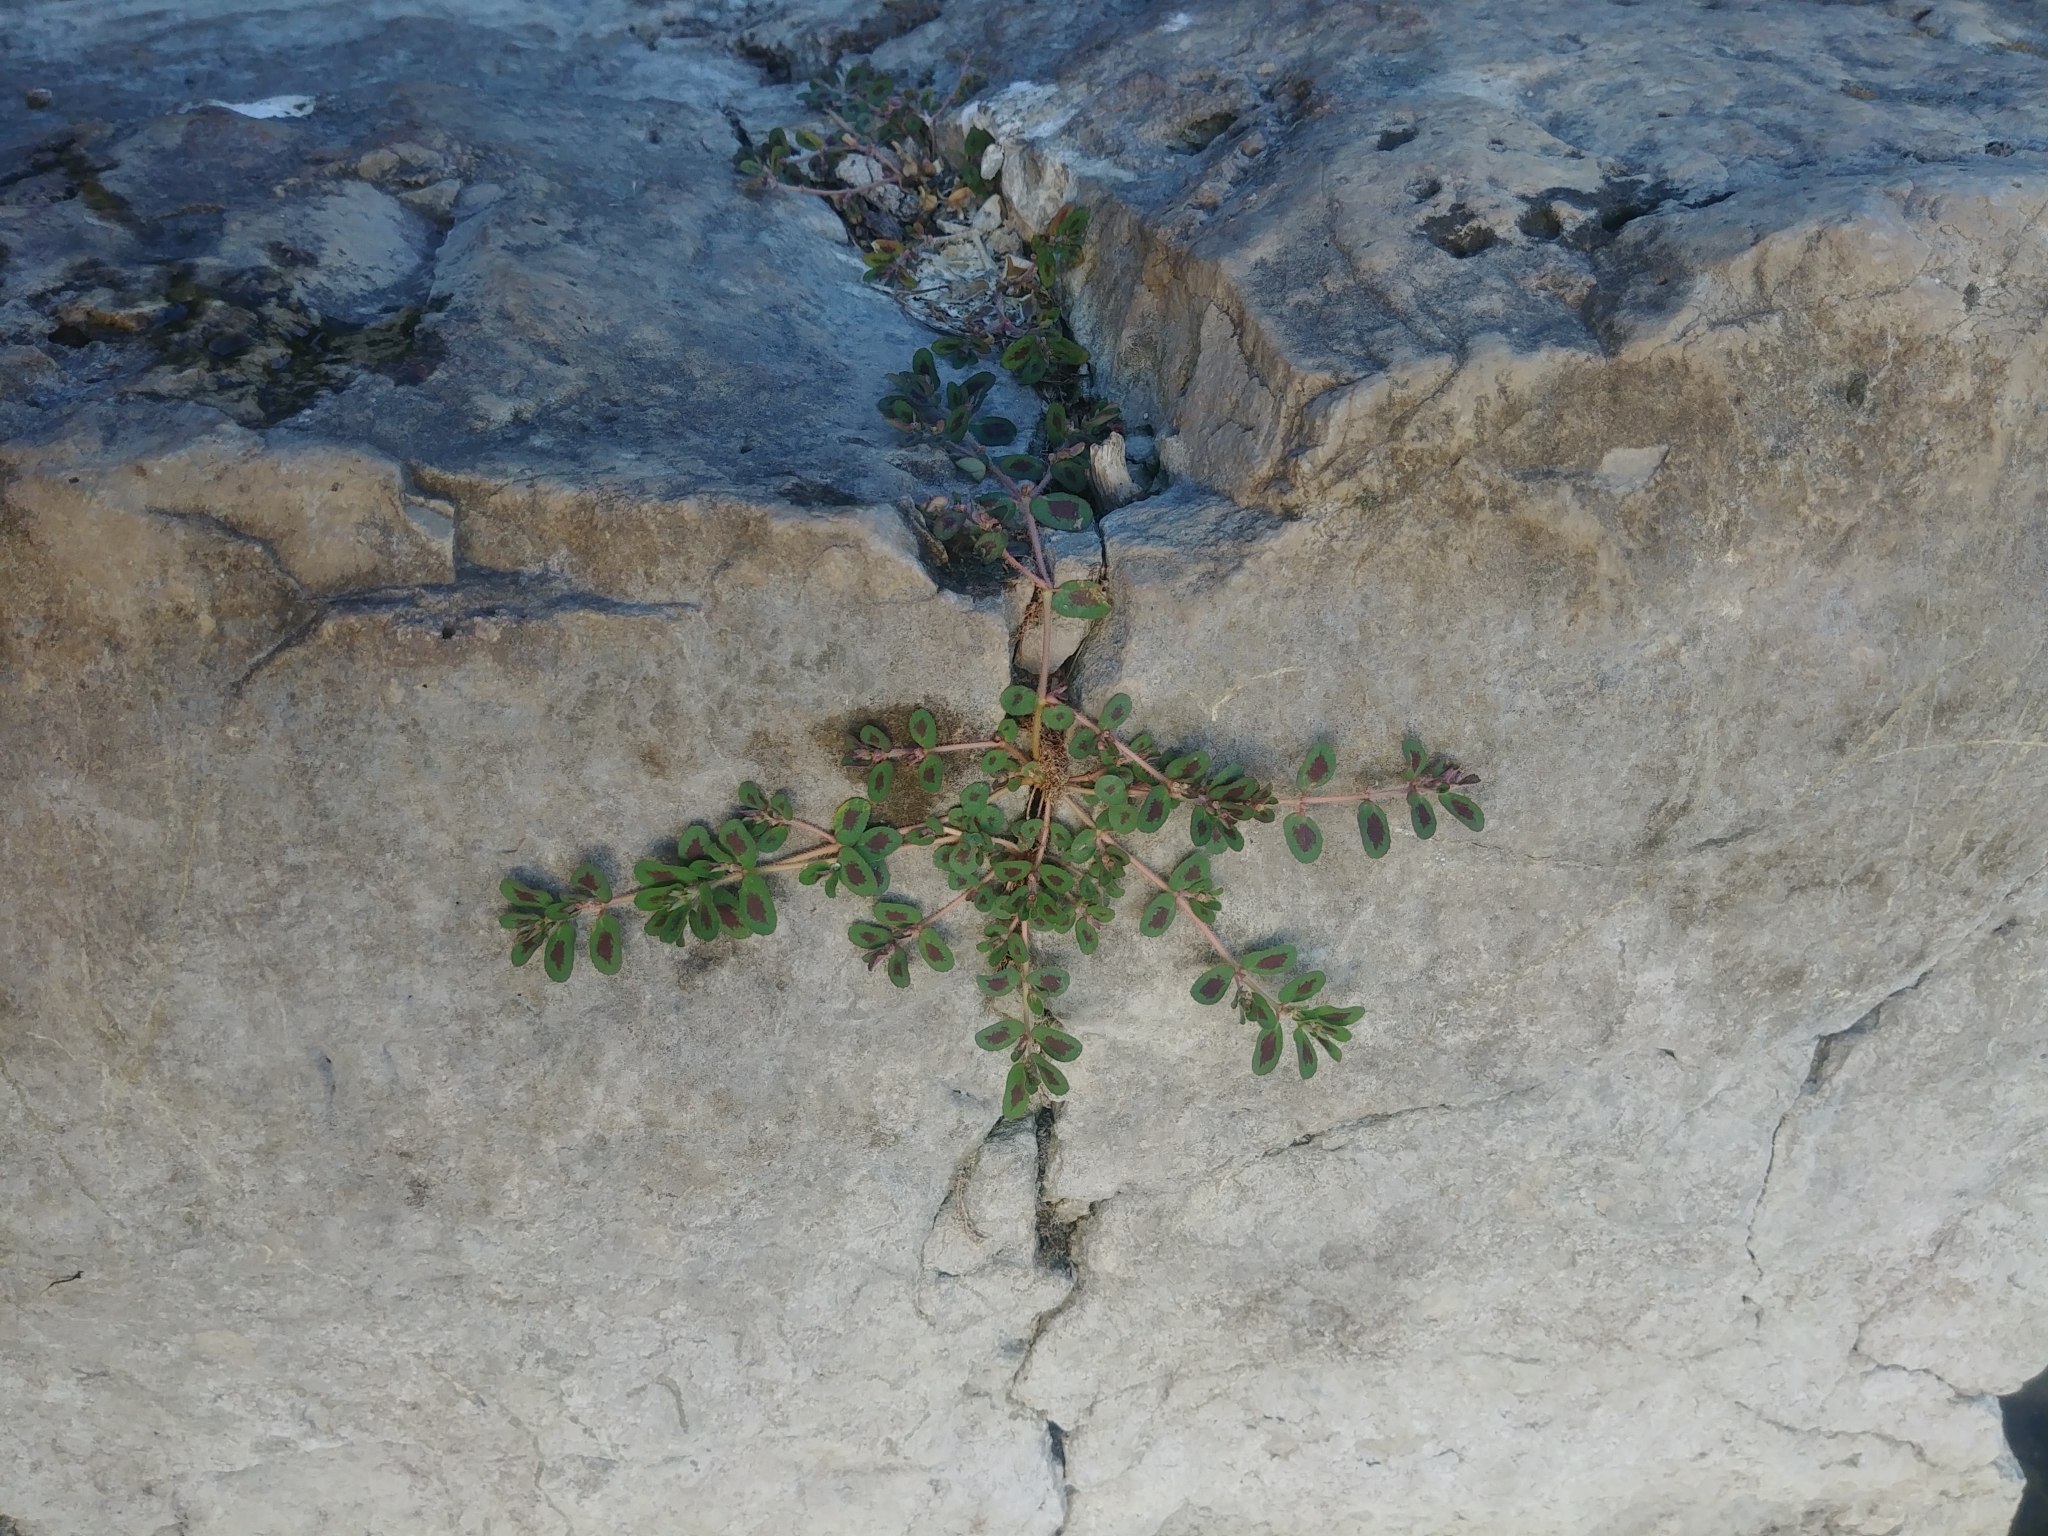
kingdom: Plantae
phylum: Tracheophyta
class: Magnoliopsida
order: Malpighiales
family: Euphorbiaceae
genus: Euphorbia
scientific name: Euphorbia maculata
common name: Spotted spurge
